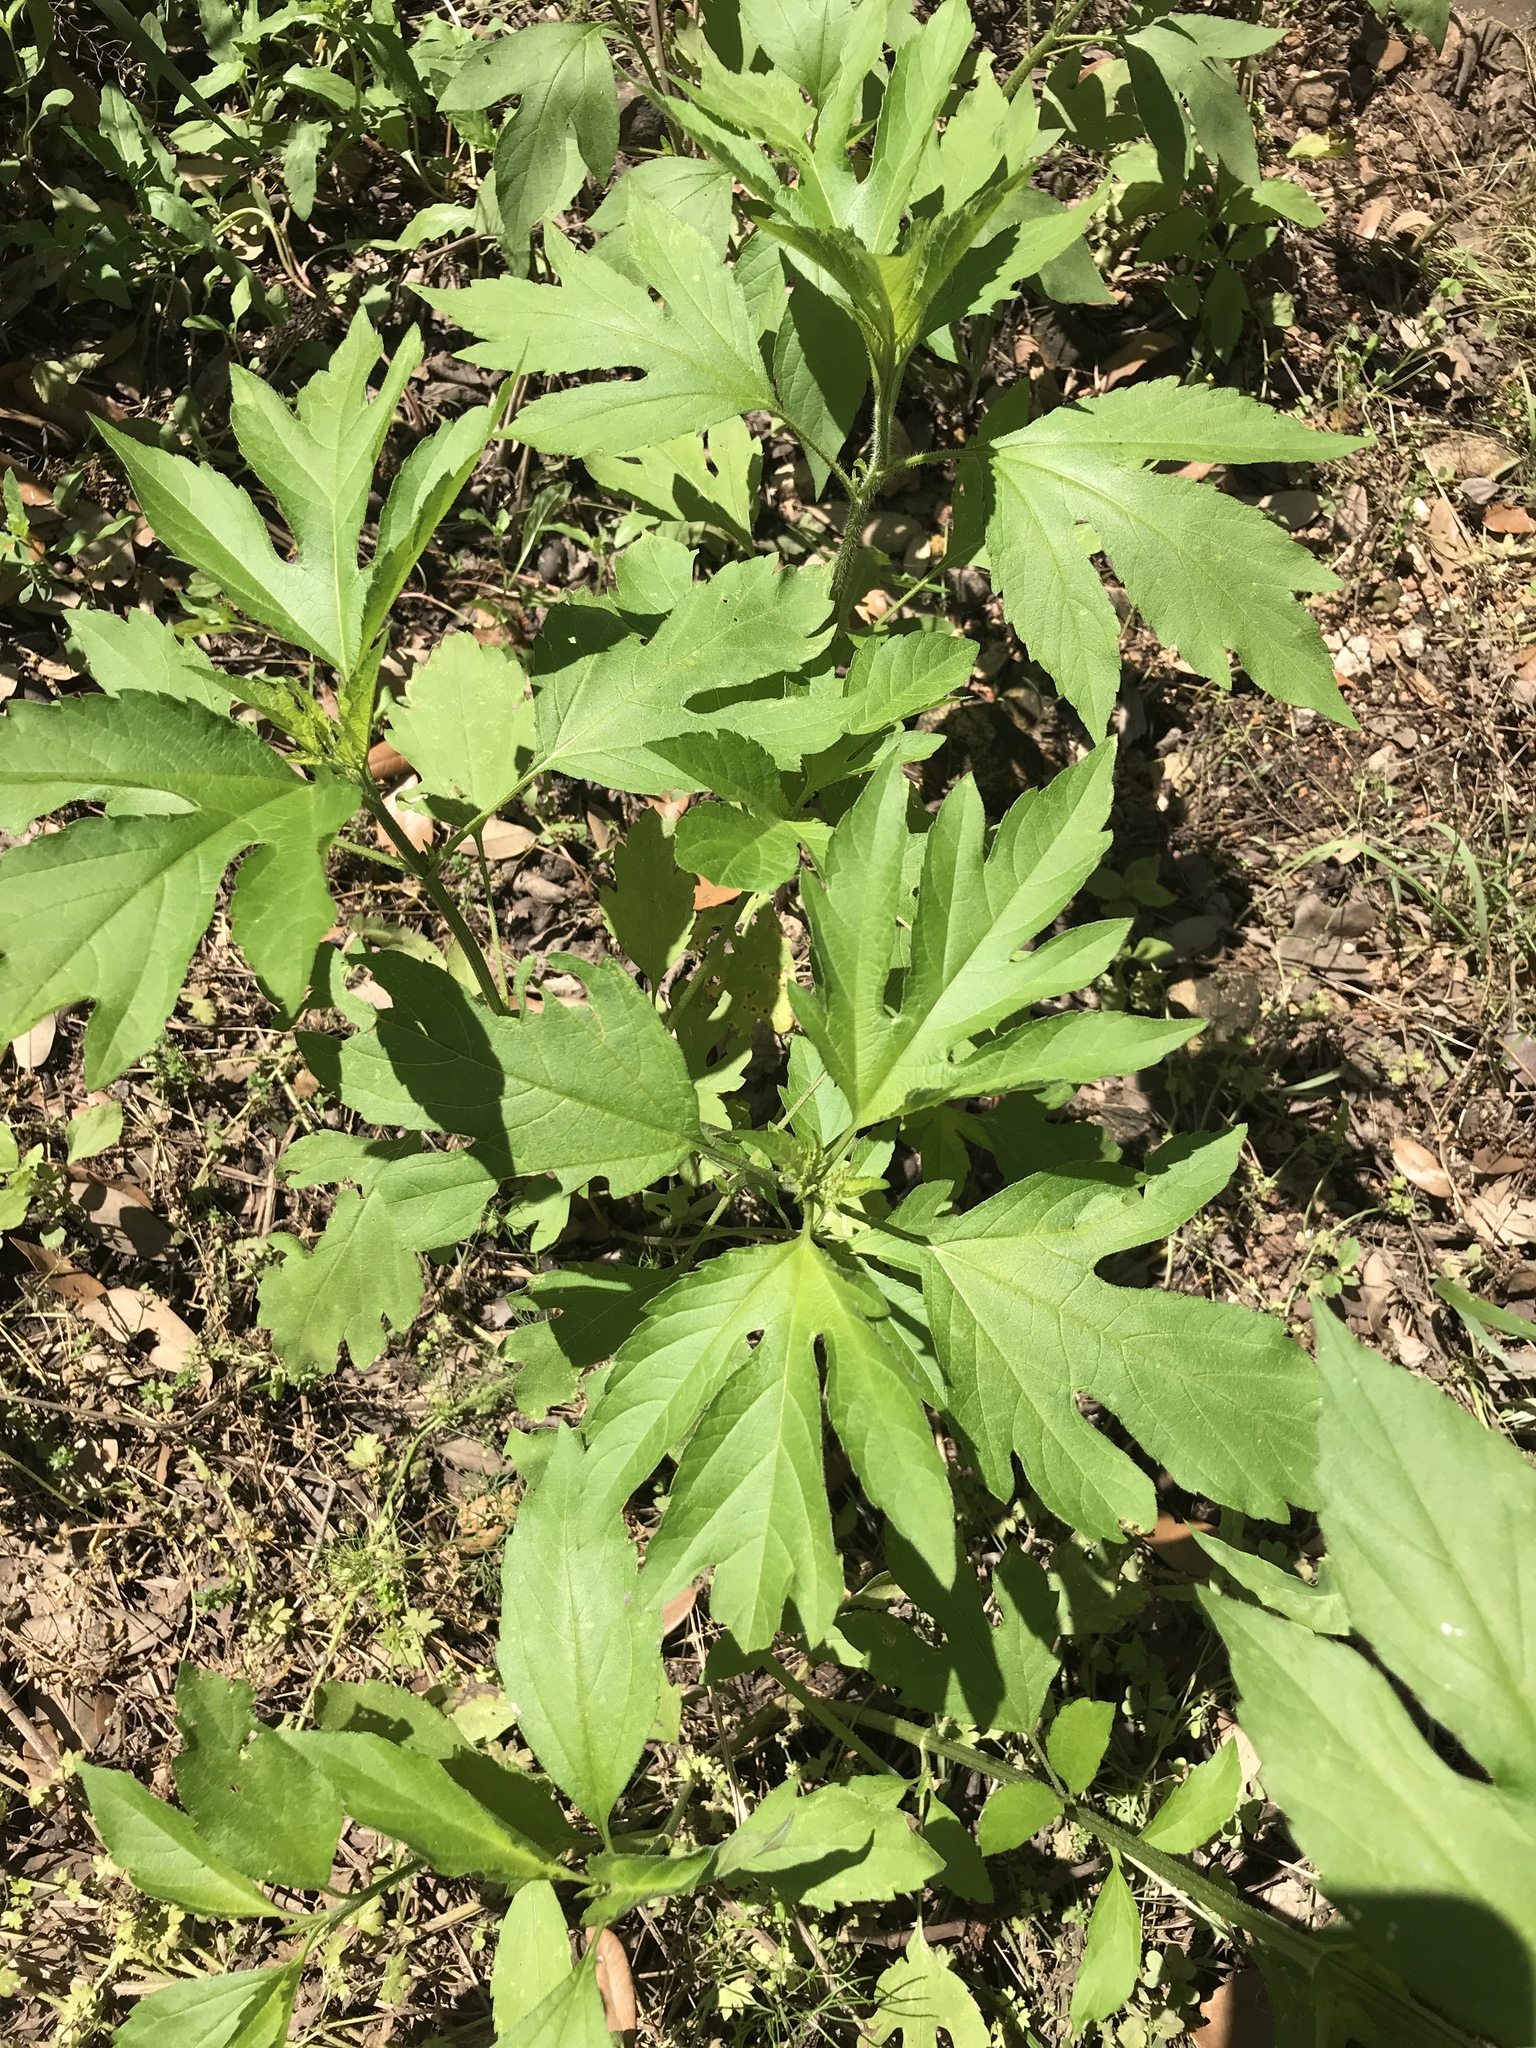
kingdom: Plantae
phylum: Tracheophyta
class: Magnoliopsida
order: Asterales
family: Asteraceae
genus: Ambrosia
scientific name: Ambrosia trifida
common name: Giant ragweed
